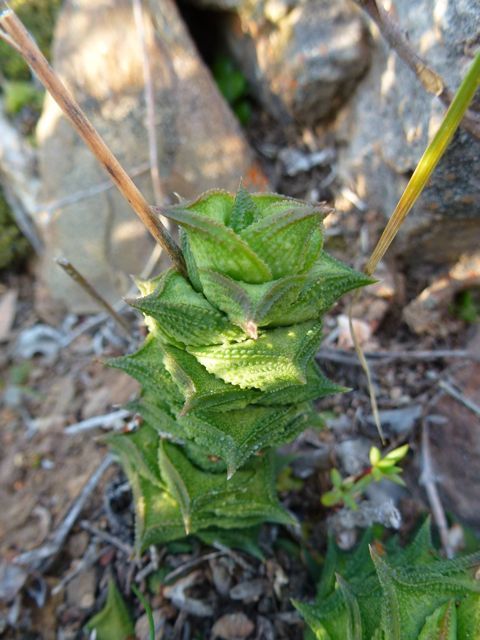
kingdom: Plantae
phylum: Tracheophyta
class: Liliopsida
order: Asparagales
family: Asphodelaceae
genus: Astroloba
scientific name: Astroloba corrugata
